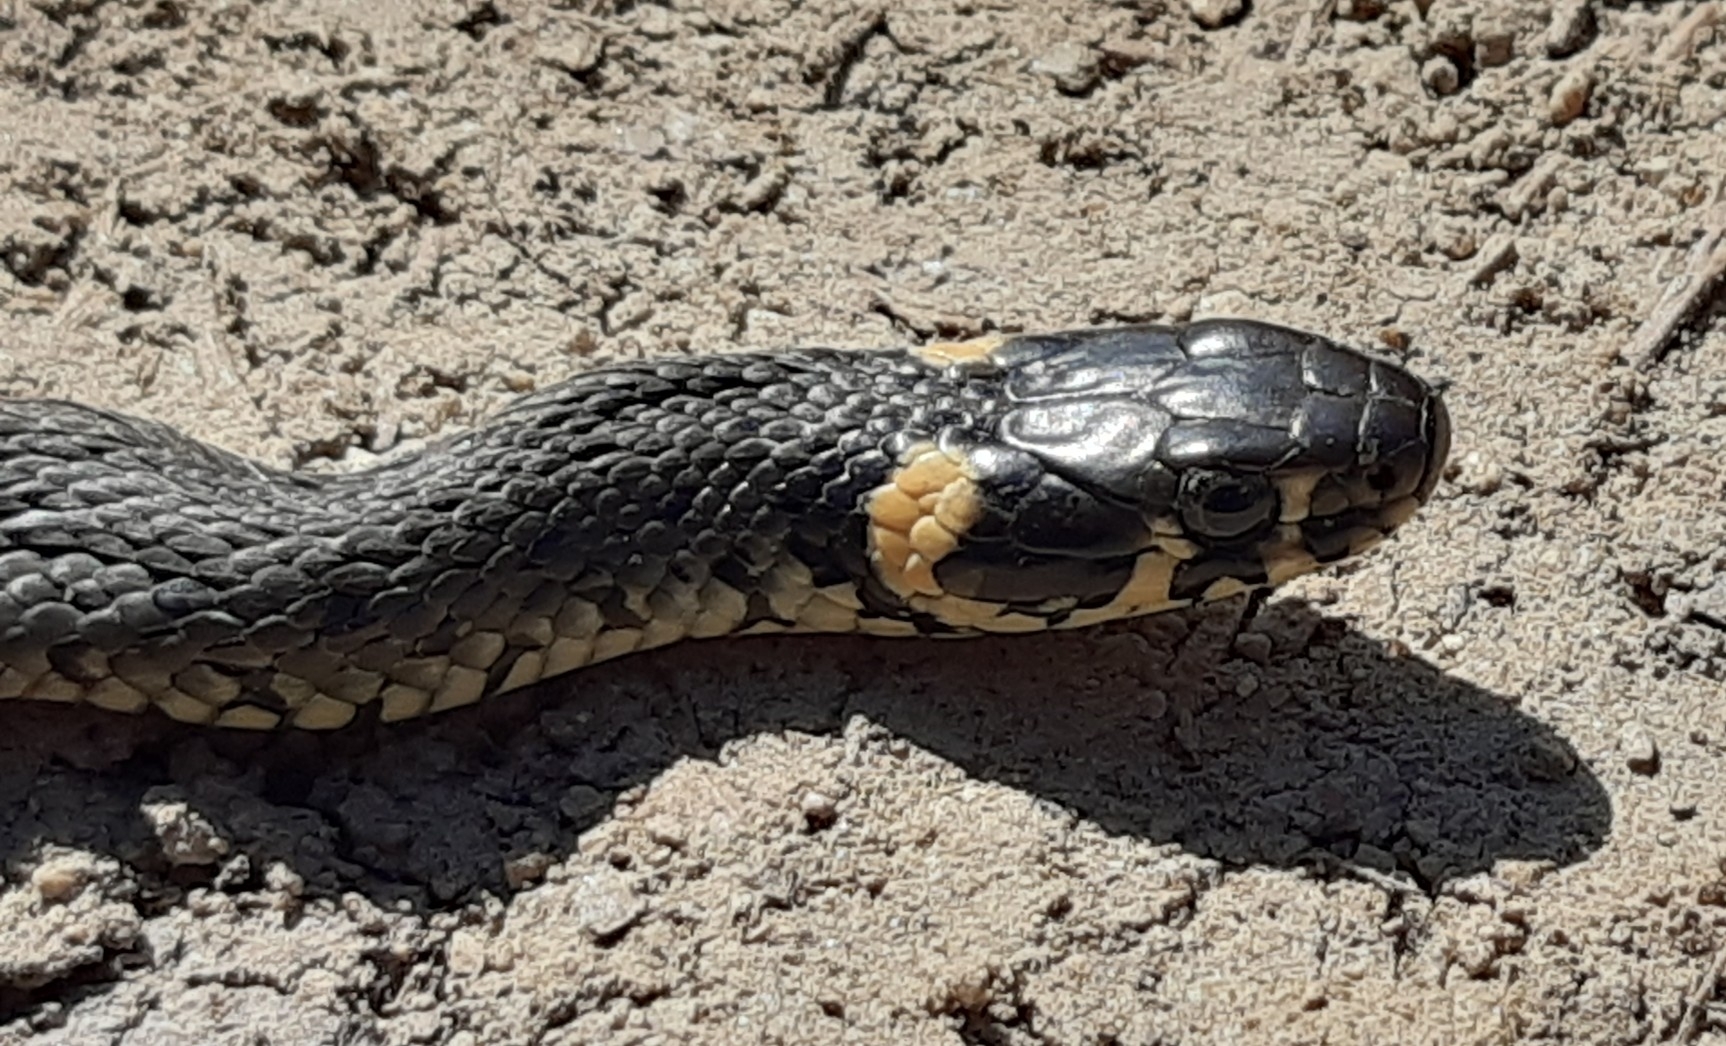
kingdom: Animalia
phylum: Chordata
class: Squamata
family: Colubridae
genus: Natrix
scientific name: Natrix natrix
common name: Grass snake
